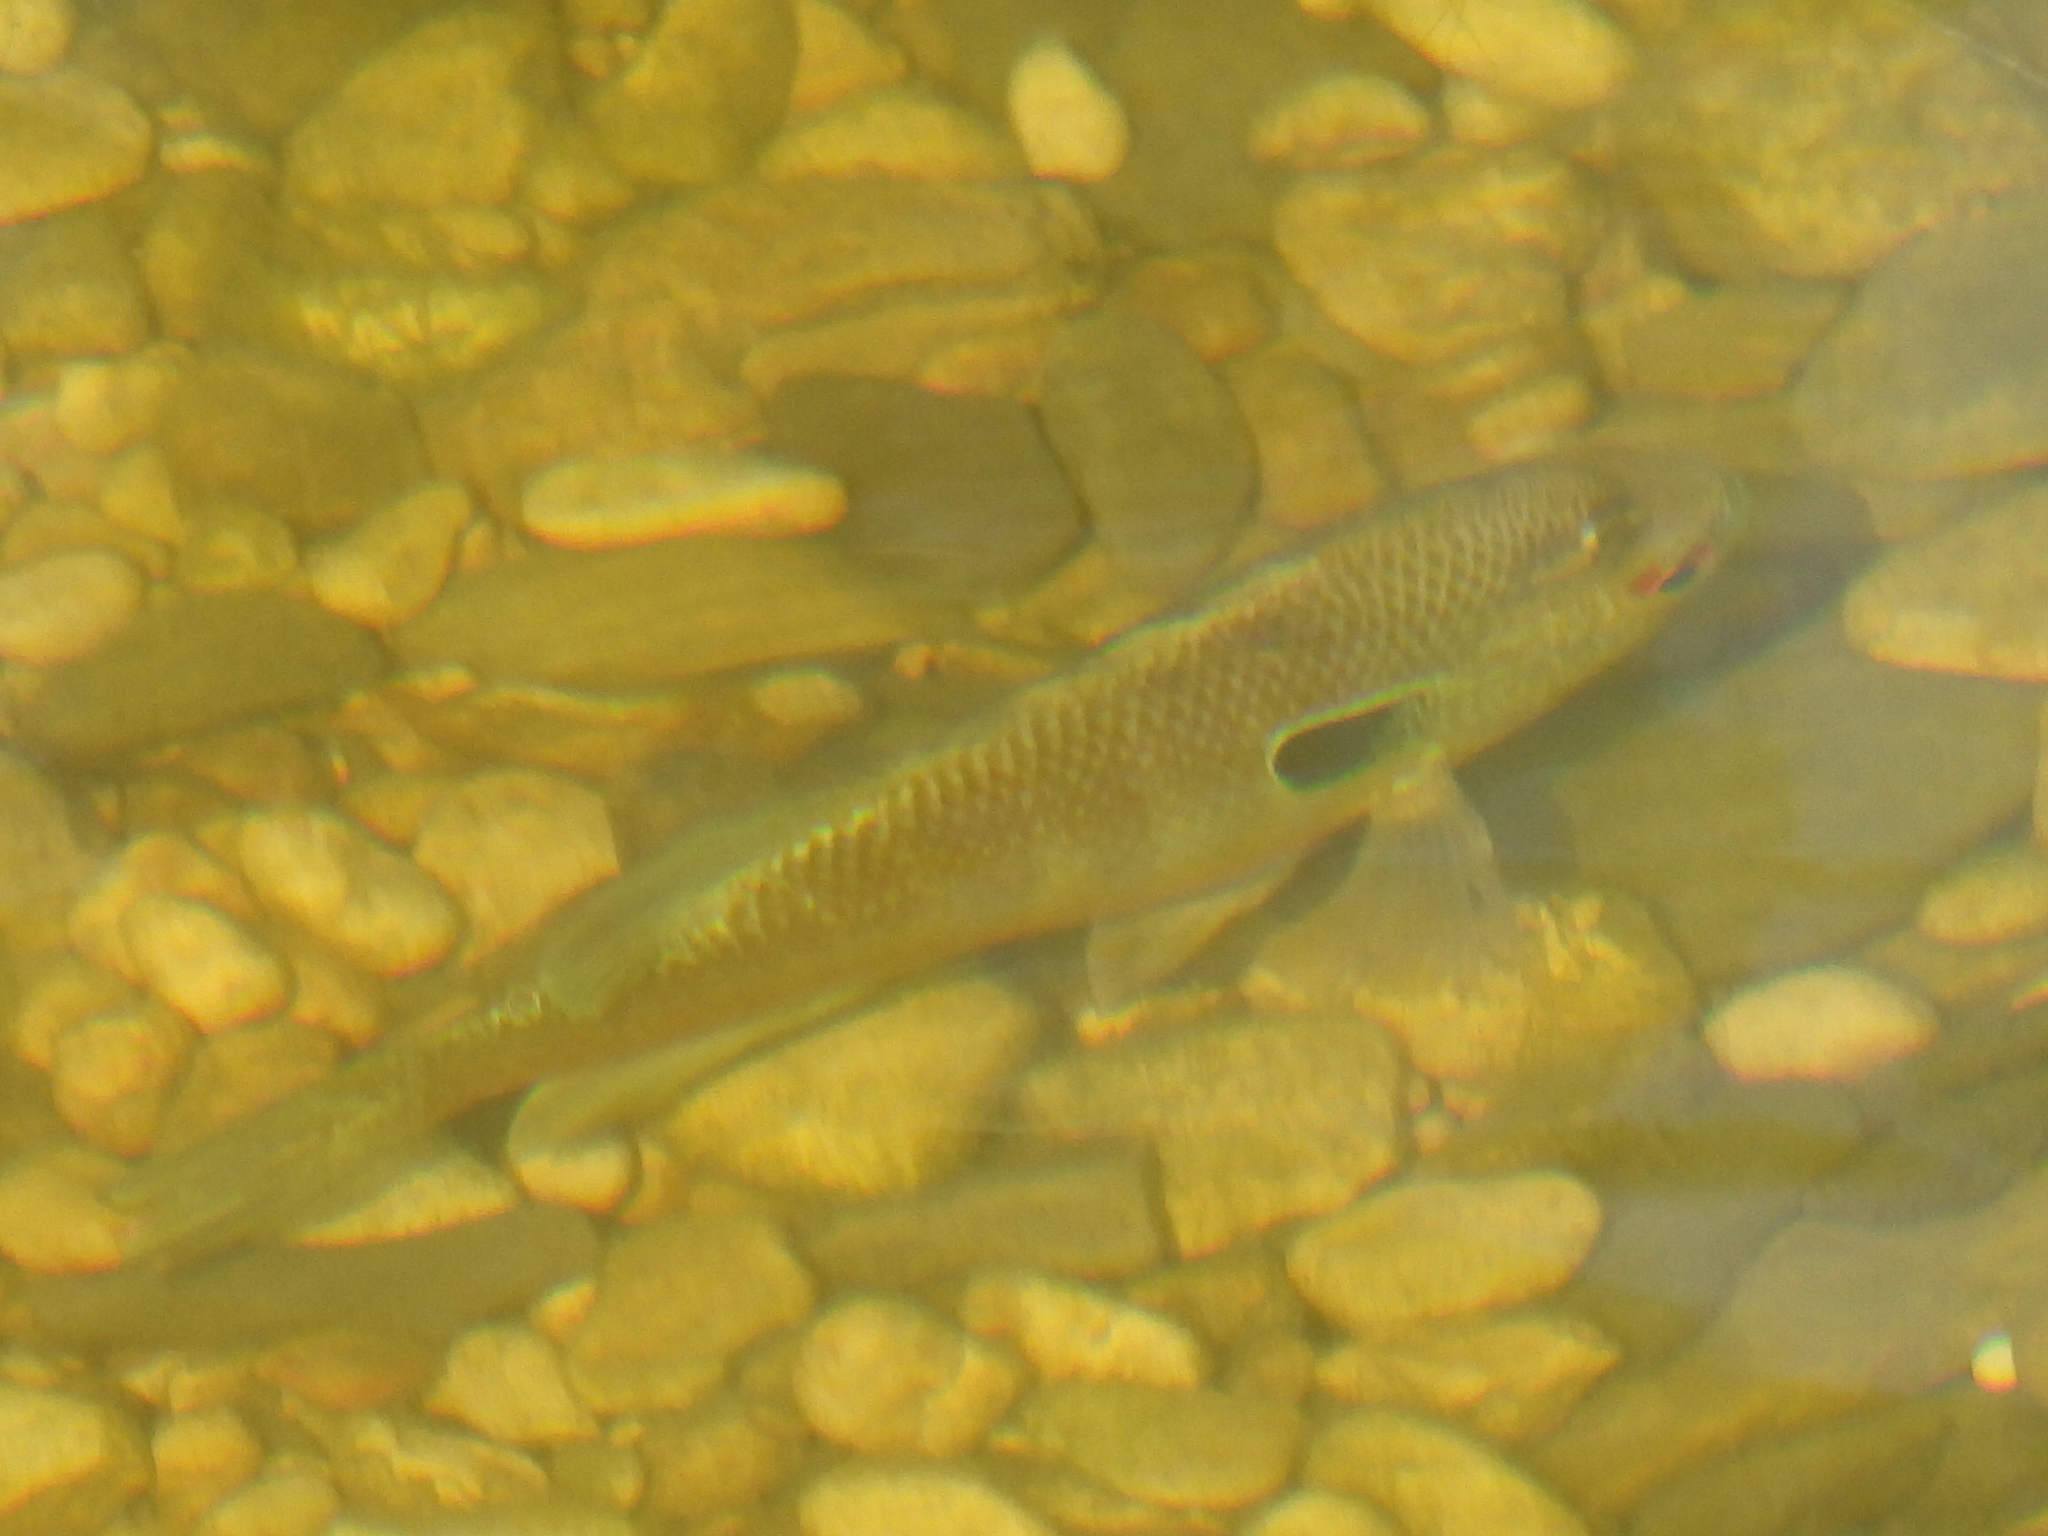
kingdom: Animalia
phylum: Chordata
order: Perciformes
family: Centrarchidae
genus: Lepomis
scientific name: Lepomis aquilensis
